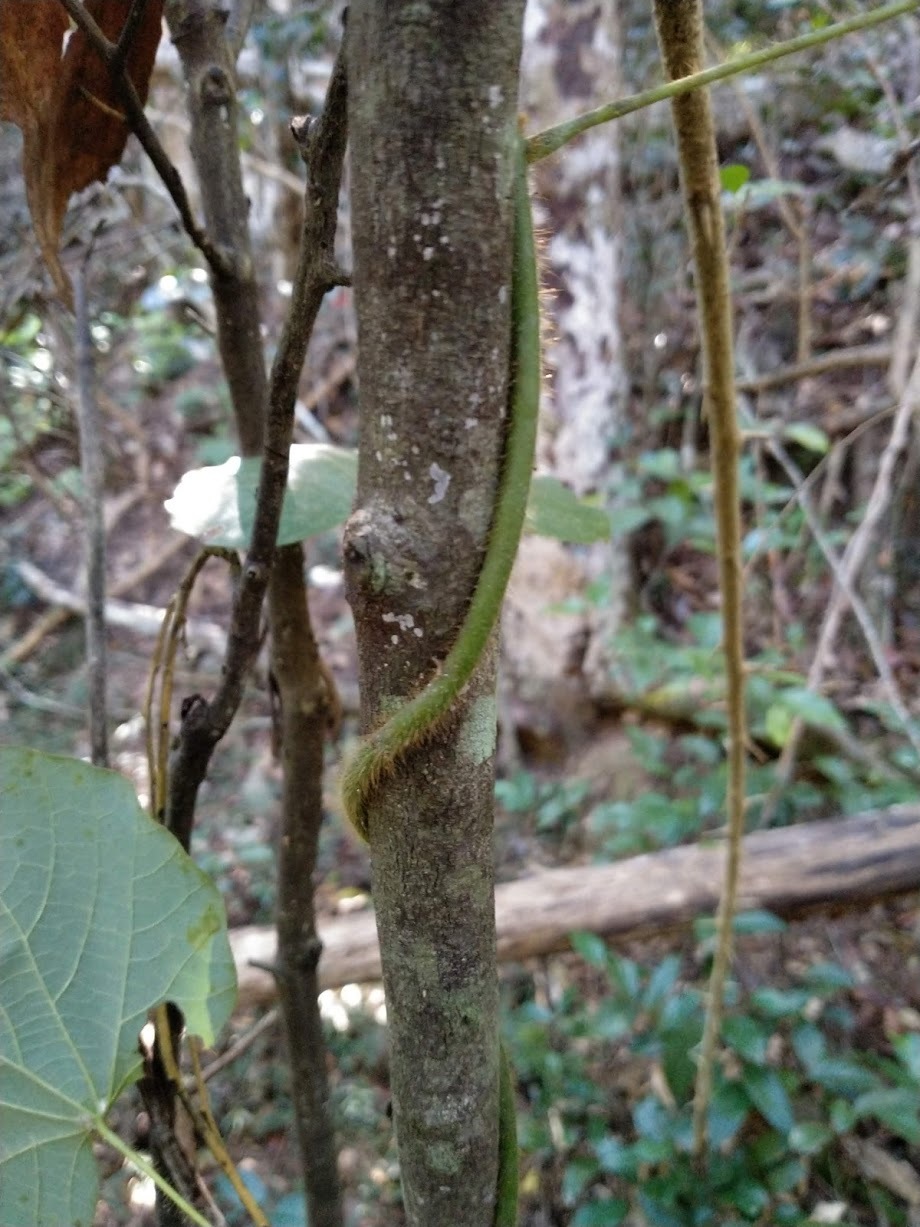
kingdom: Plantae
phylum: Tracheophyta
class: Magnoliopsida
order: Ranunculales
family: Menispermaceae
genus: Legnephora
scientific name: Legnephora moorei
